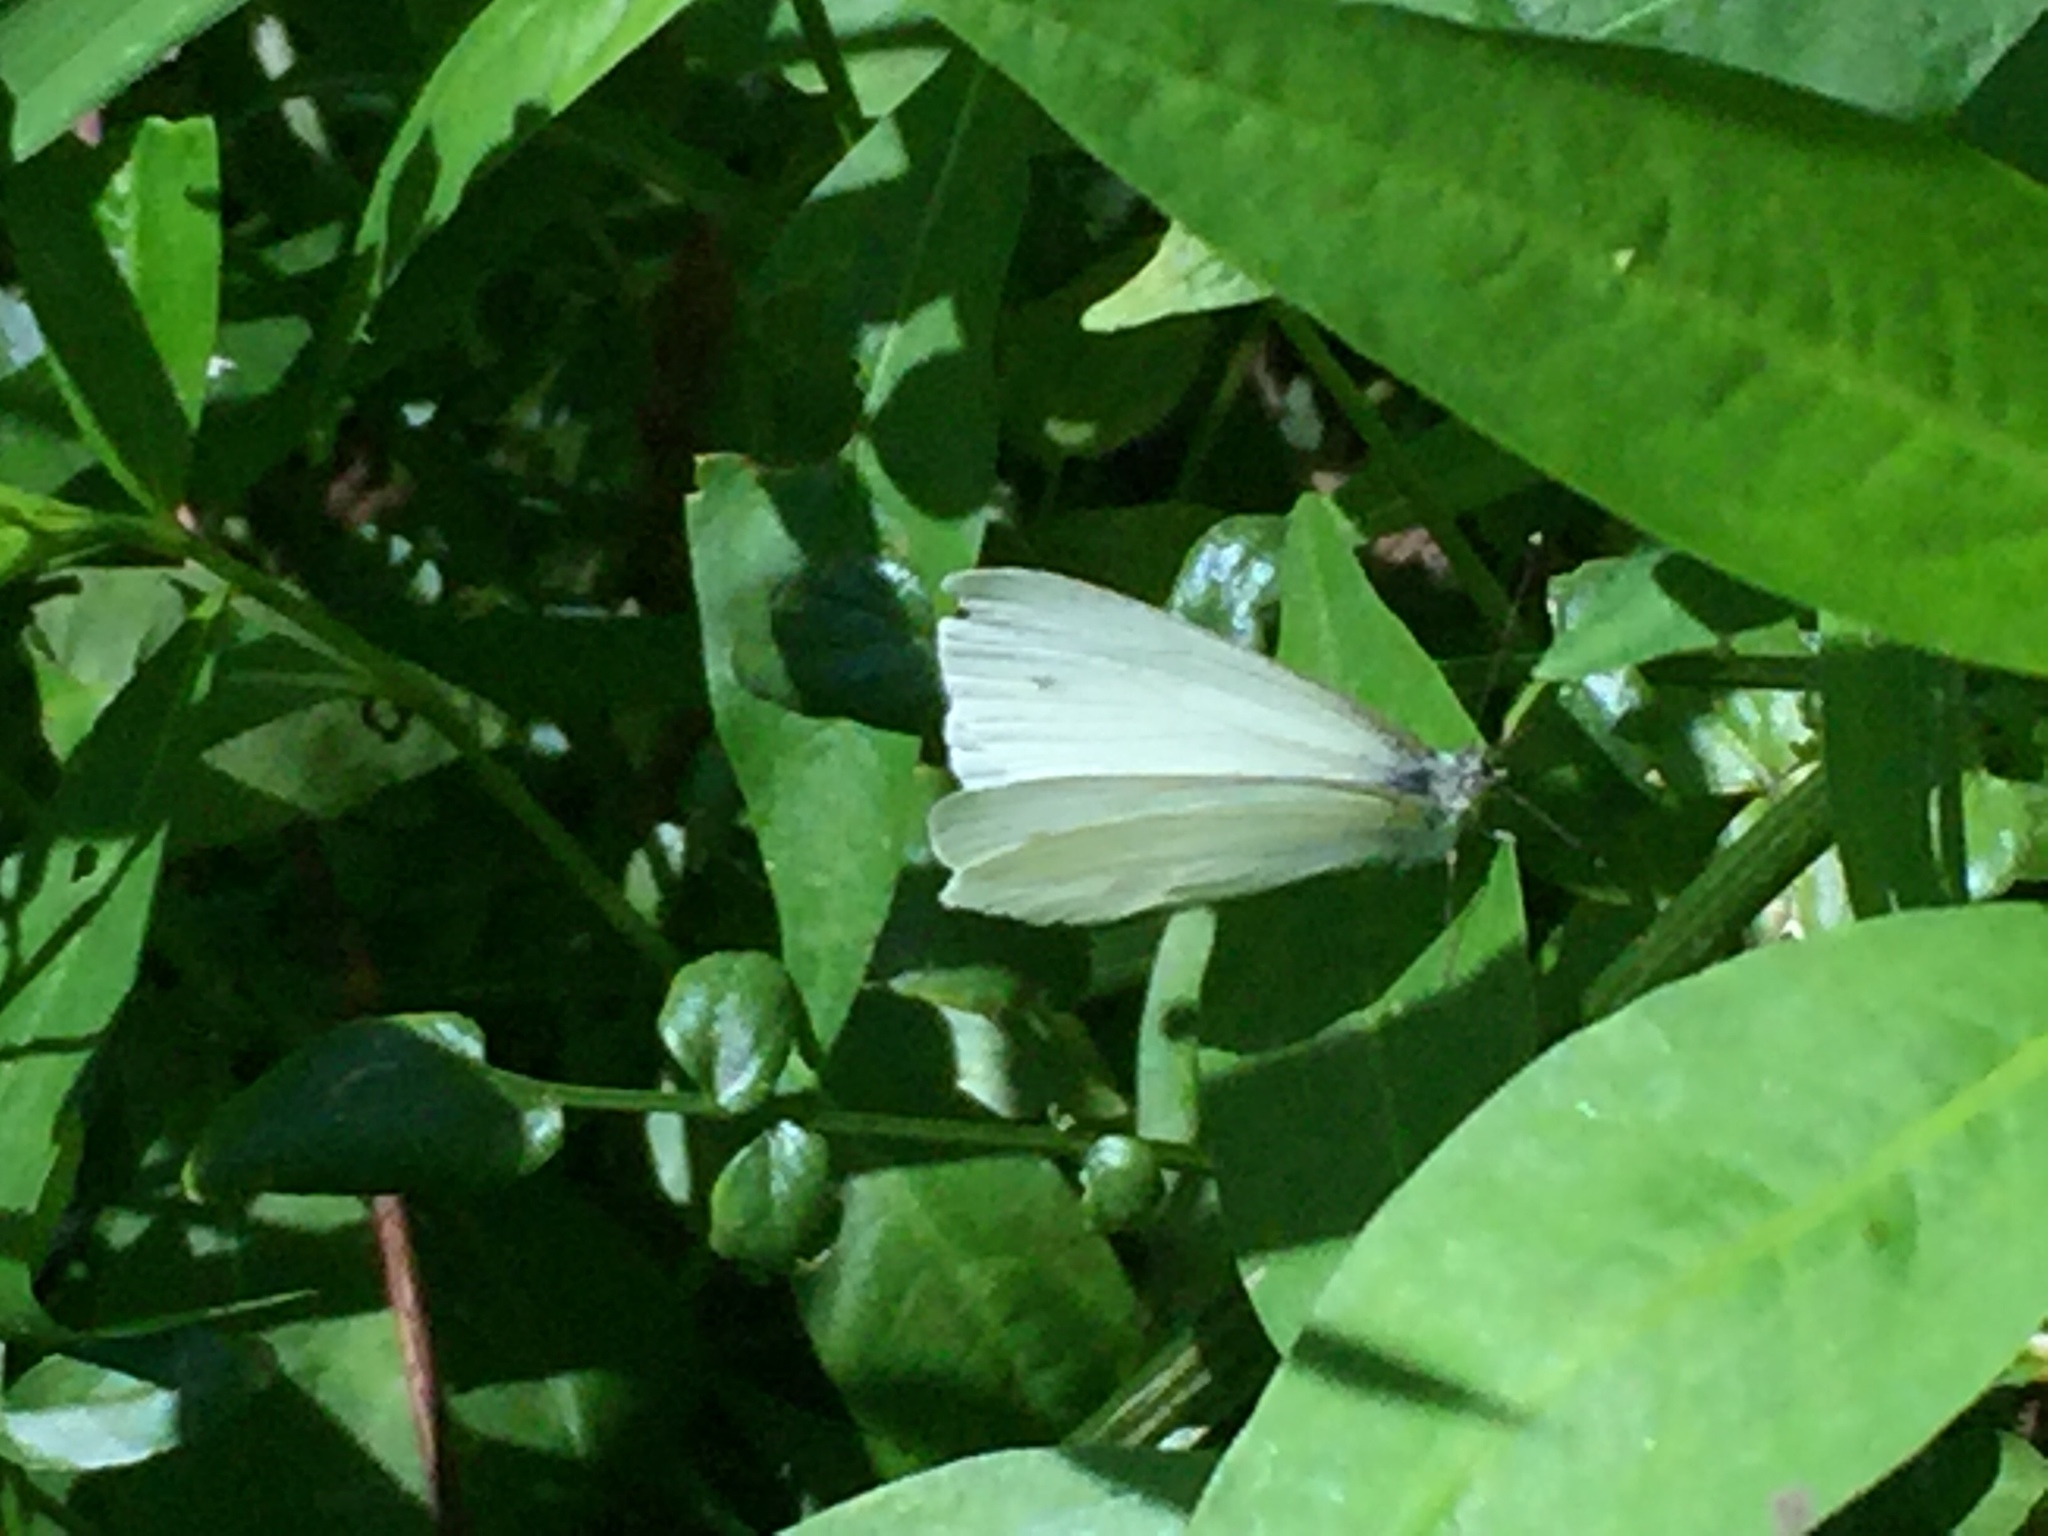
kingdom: Animalia
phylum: Arthropoda
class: Insecta
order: Lepidoptera
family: Pieridae
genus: Pieris
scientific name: Pieris rapae
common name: Small white
